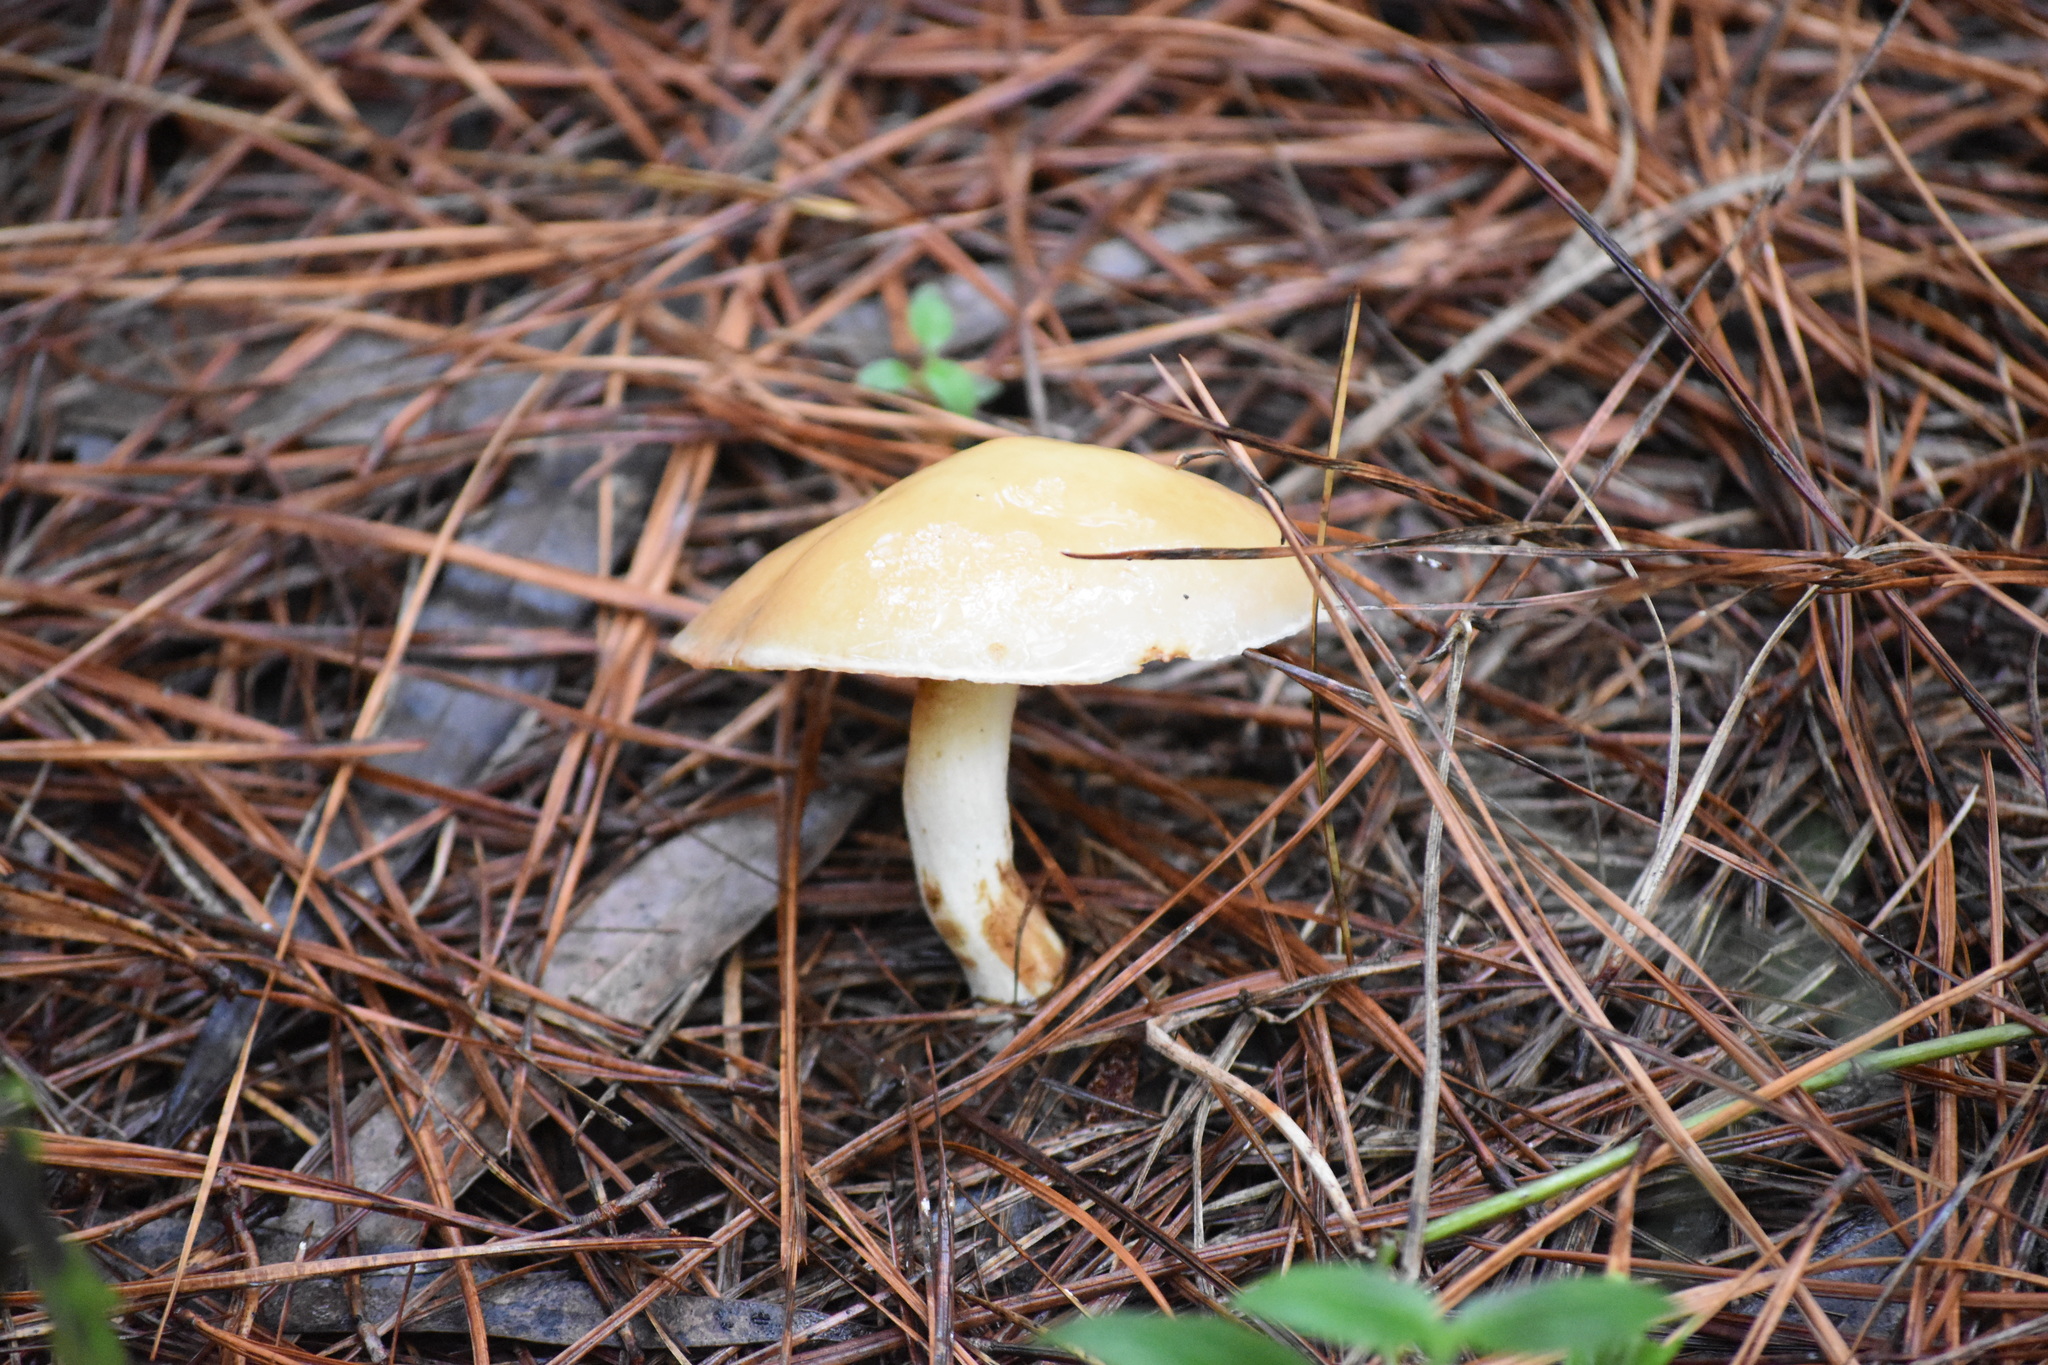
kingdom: Fungi
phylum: Basidiomycota
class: Agaricomycetes
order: Boletales
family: Suillaceae
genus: Suillus
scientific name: Suillus granulatus
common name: Weeping bolete
